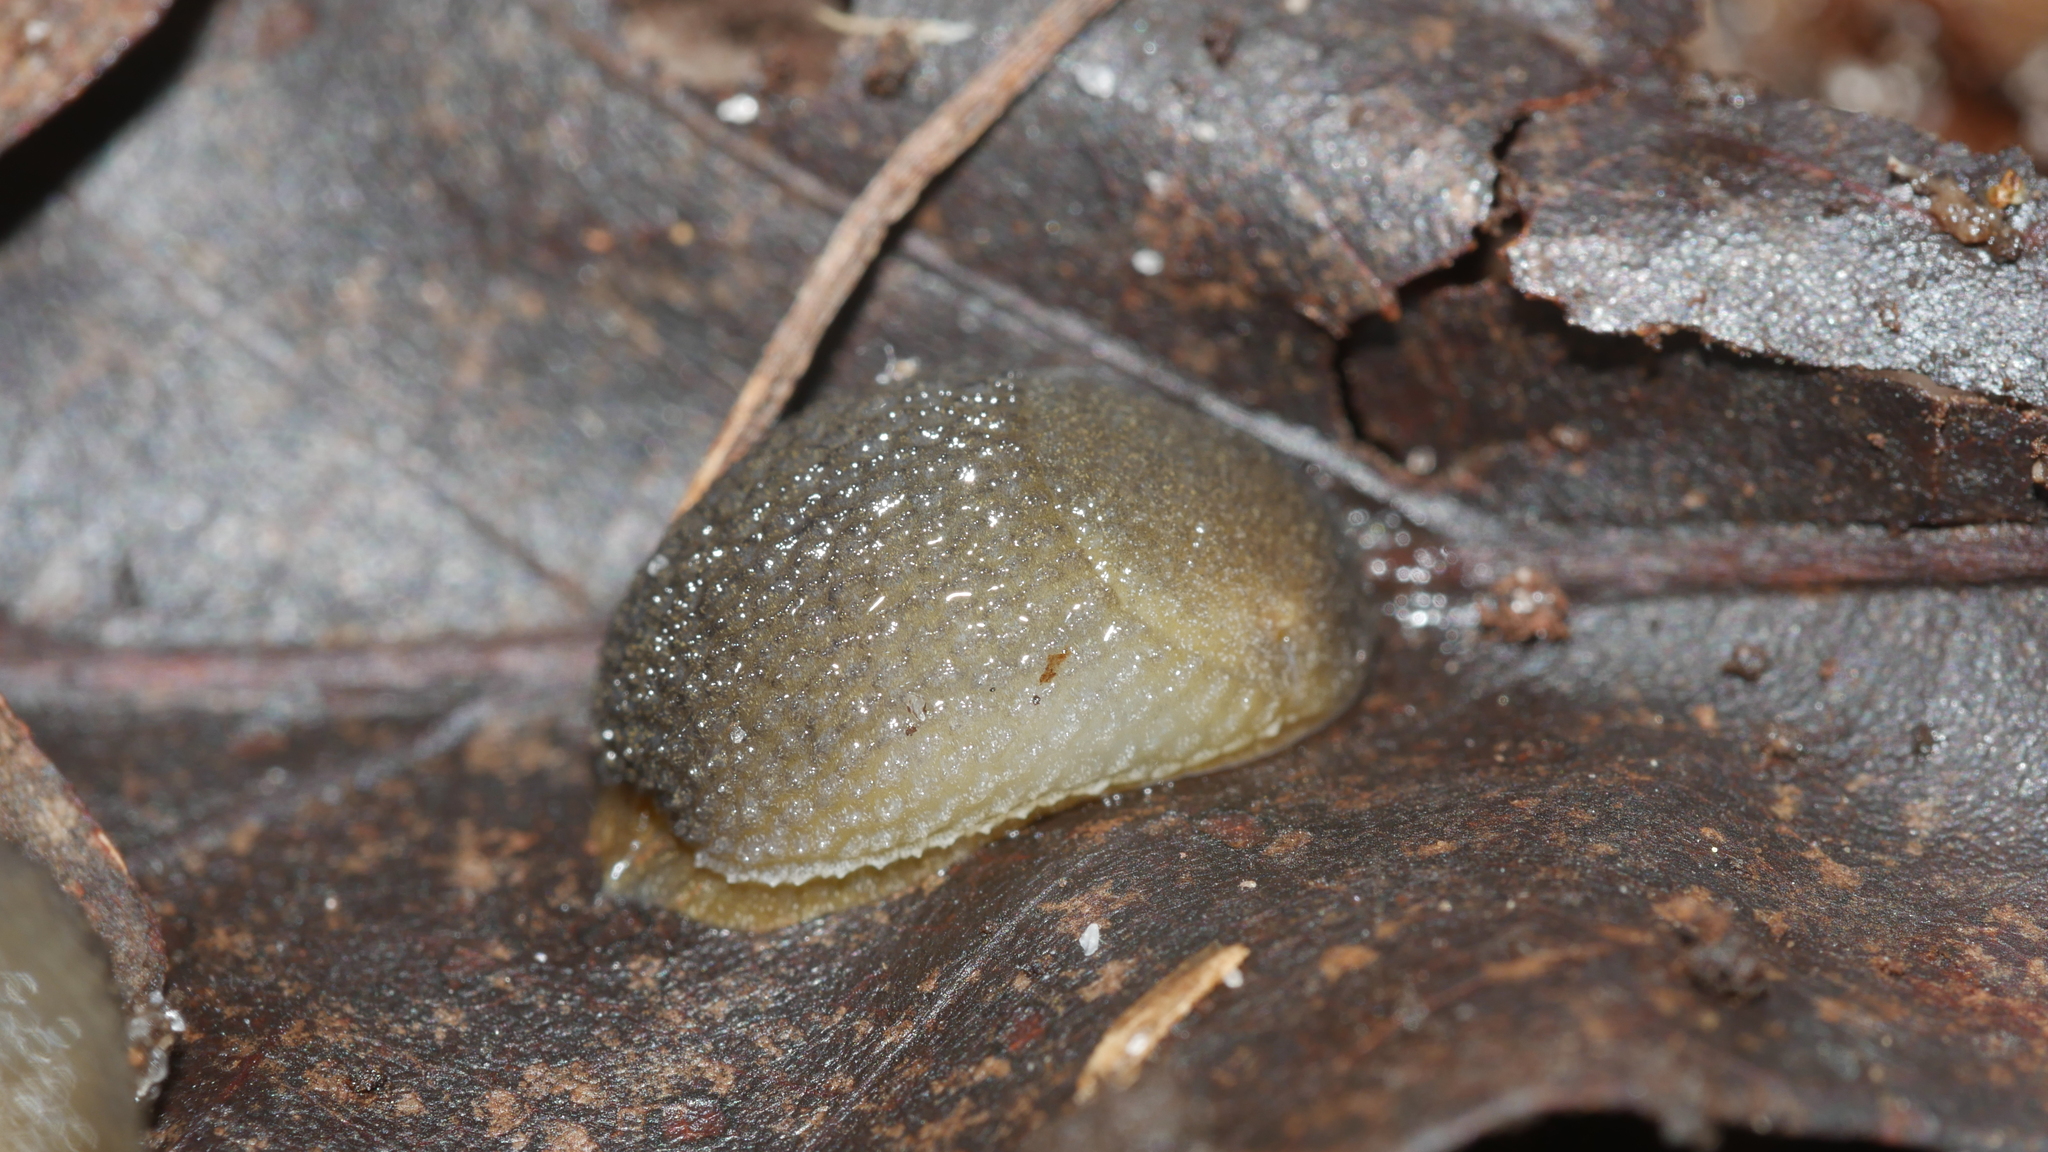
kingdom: Animalia
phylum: Mollusca
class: Gastropoda
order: Stylommatophora
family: Arionidae
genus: Arion
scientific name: Arion intermedius
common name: Hedgehog slug
